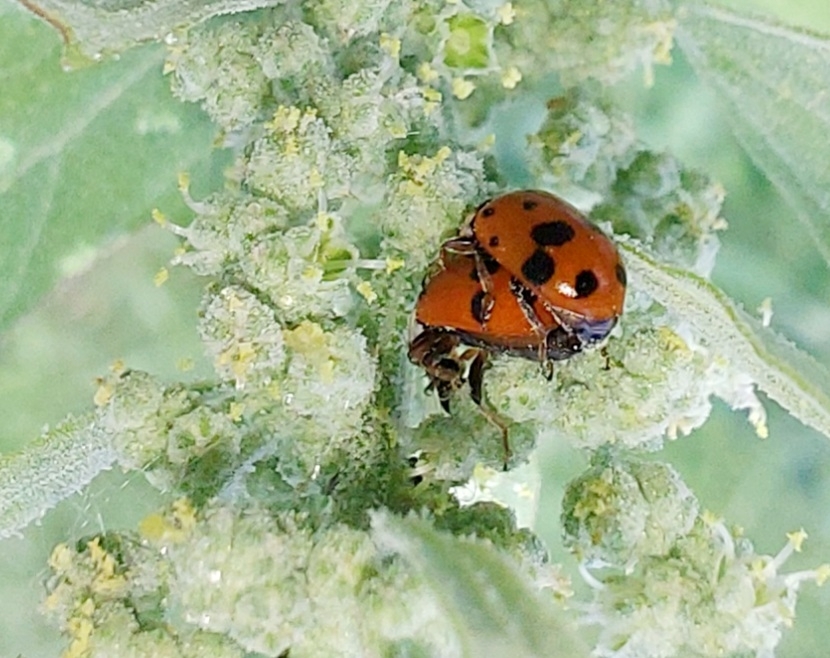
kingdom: Animalia
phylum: Arthropoda
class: Insecta
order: Coleoptera
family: Coccinellidae
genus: Hippodamia
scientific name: Hippodamia variegata
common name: Ladybird beetle
